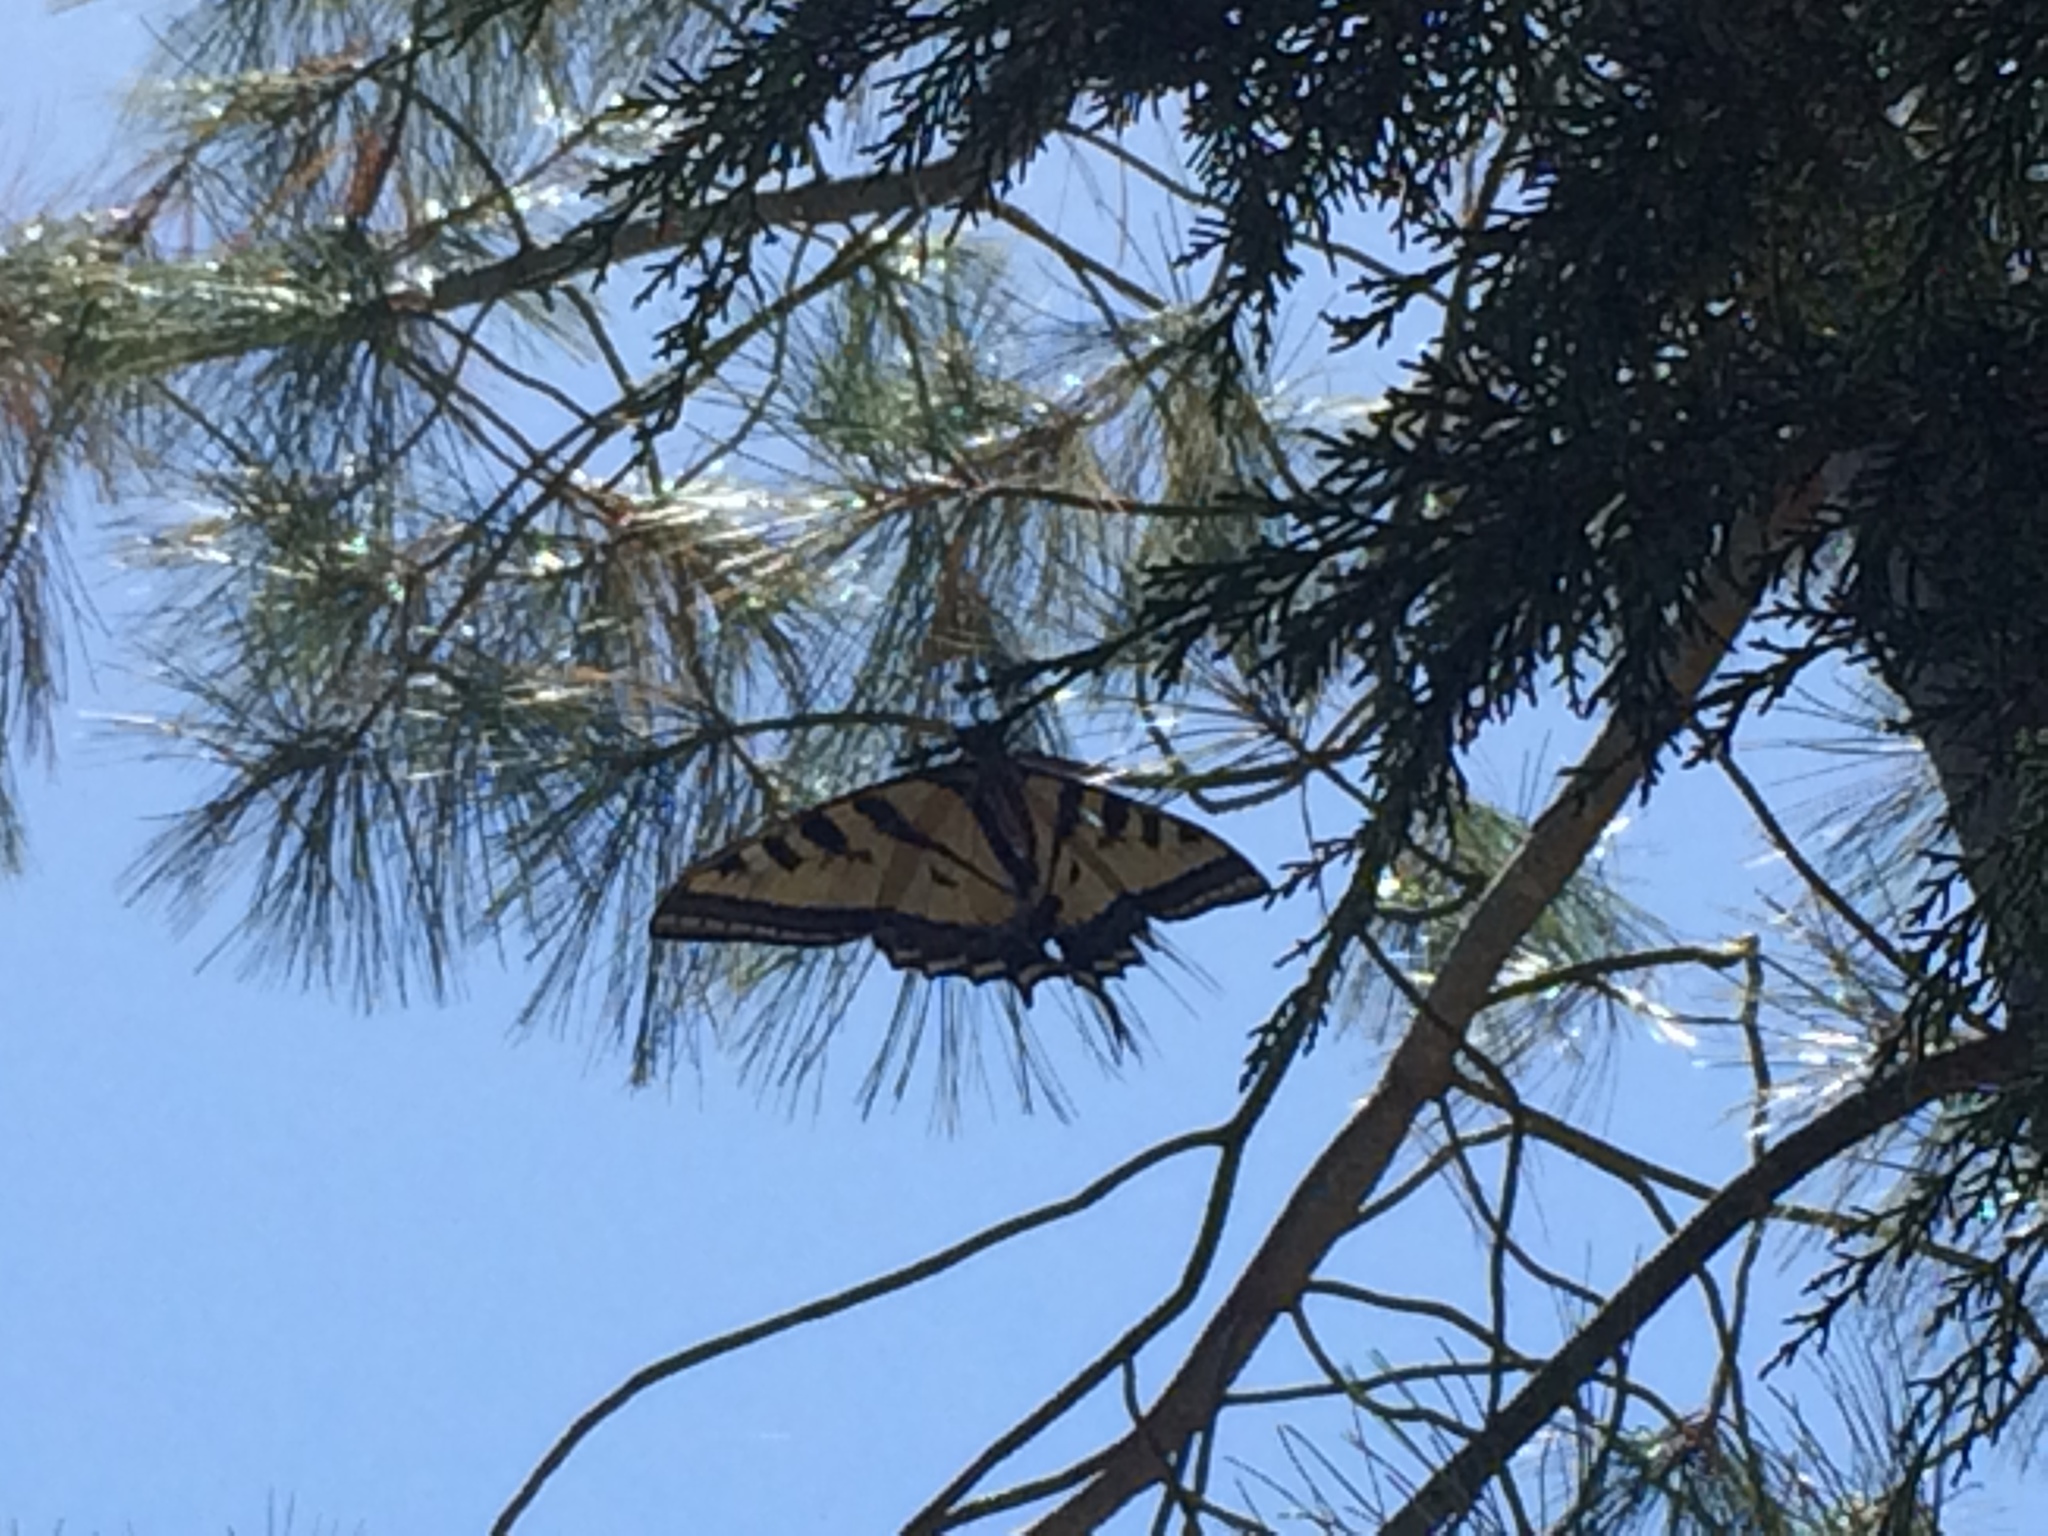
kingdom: Animalia
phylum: Arthropoda
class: Insecta
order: Lepidoptera
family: Papilionidae
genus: Papilio
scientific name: Papilio rutulus
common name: Western tiger swallowtail
